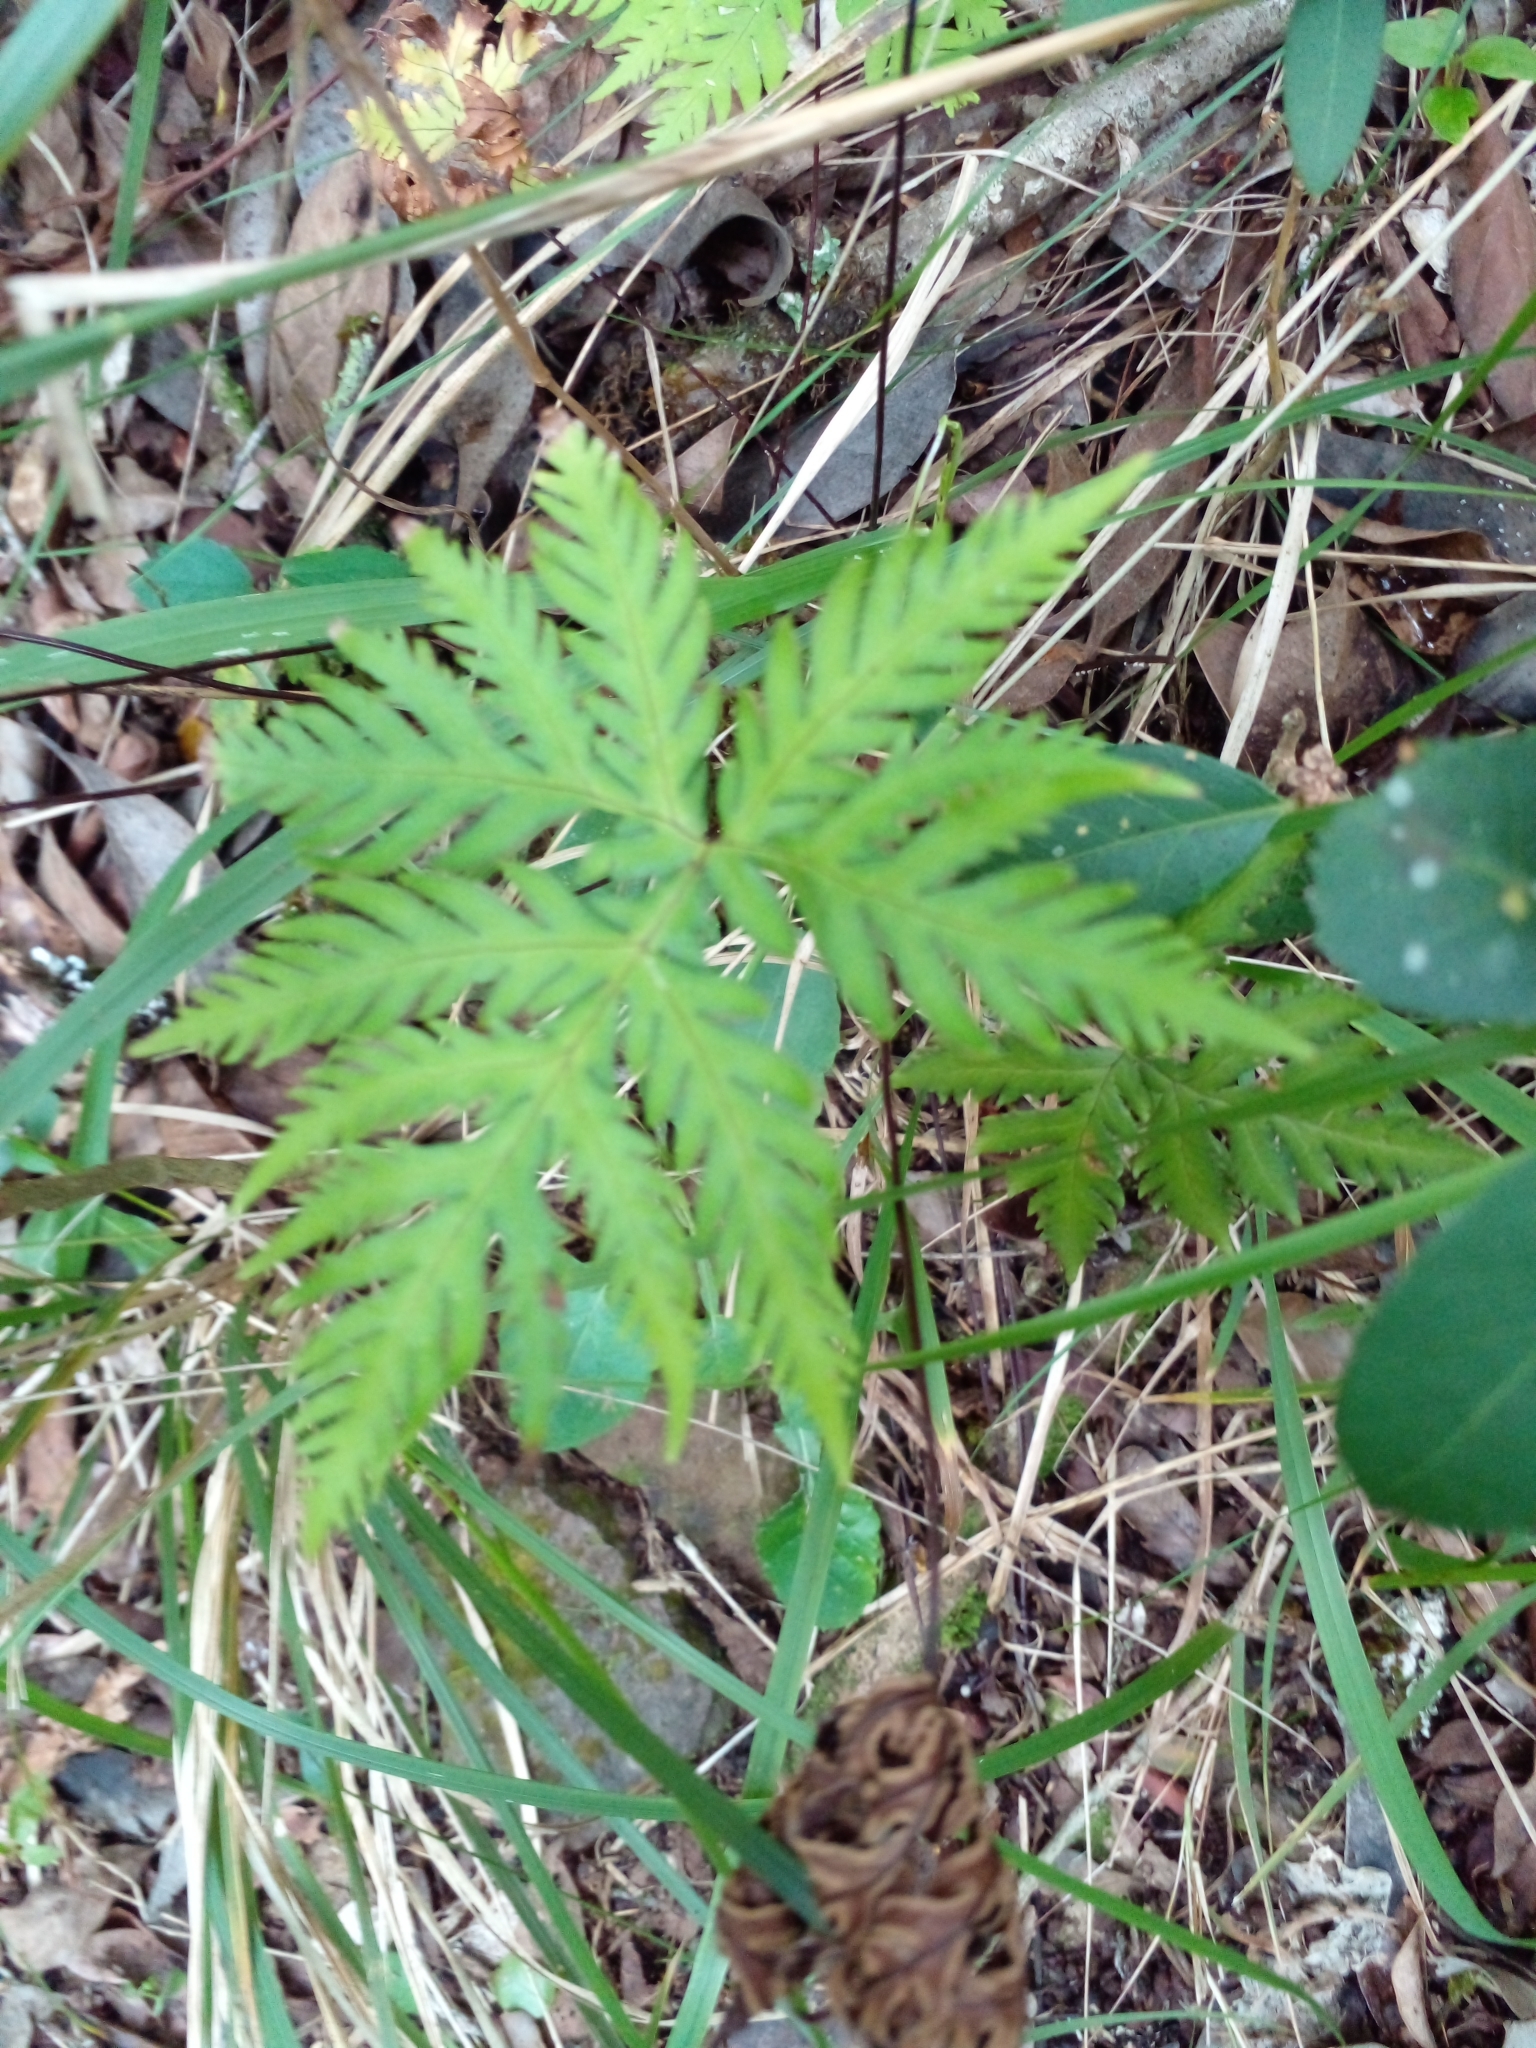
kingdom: Plantae
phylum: Tracheophyta
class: Polypodiopsida
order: Polypodiales
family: Pteridaceae
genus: Doryopteris
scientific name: Doryopteris concolor
